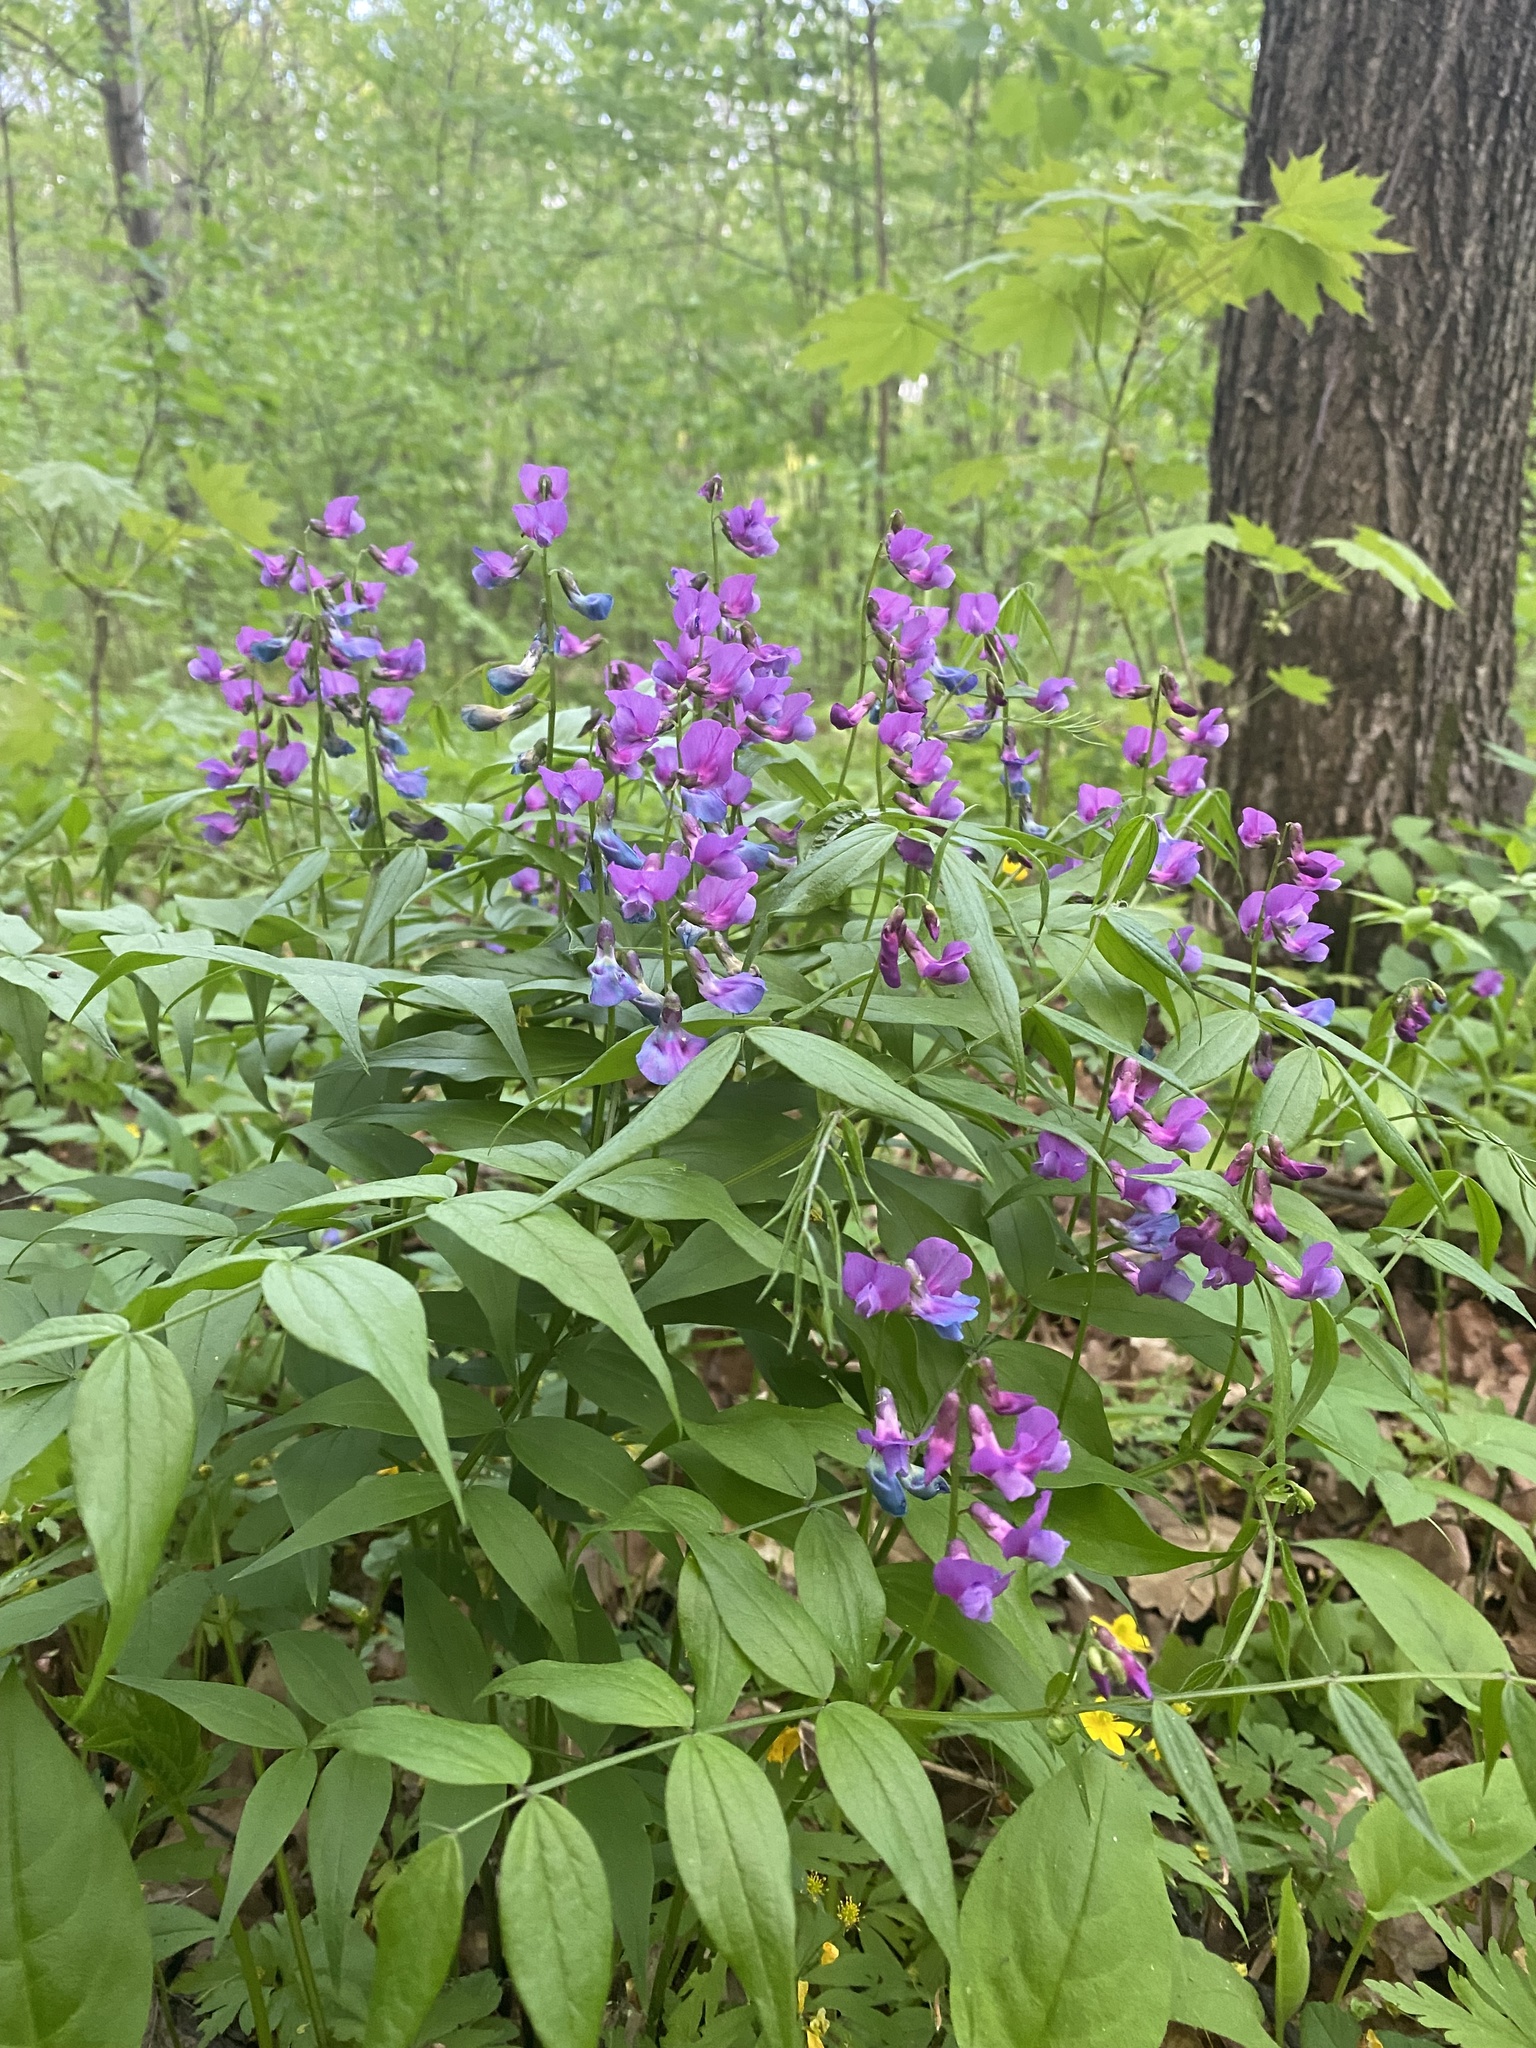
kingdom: Plantae
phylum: Tracheophyta
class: Magnoliopsida
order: Fabales
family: Fabaceae
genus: Lathyrus
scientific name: Lathyrus vernus
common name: Spring pea
